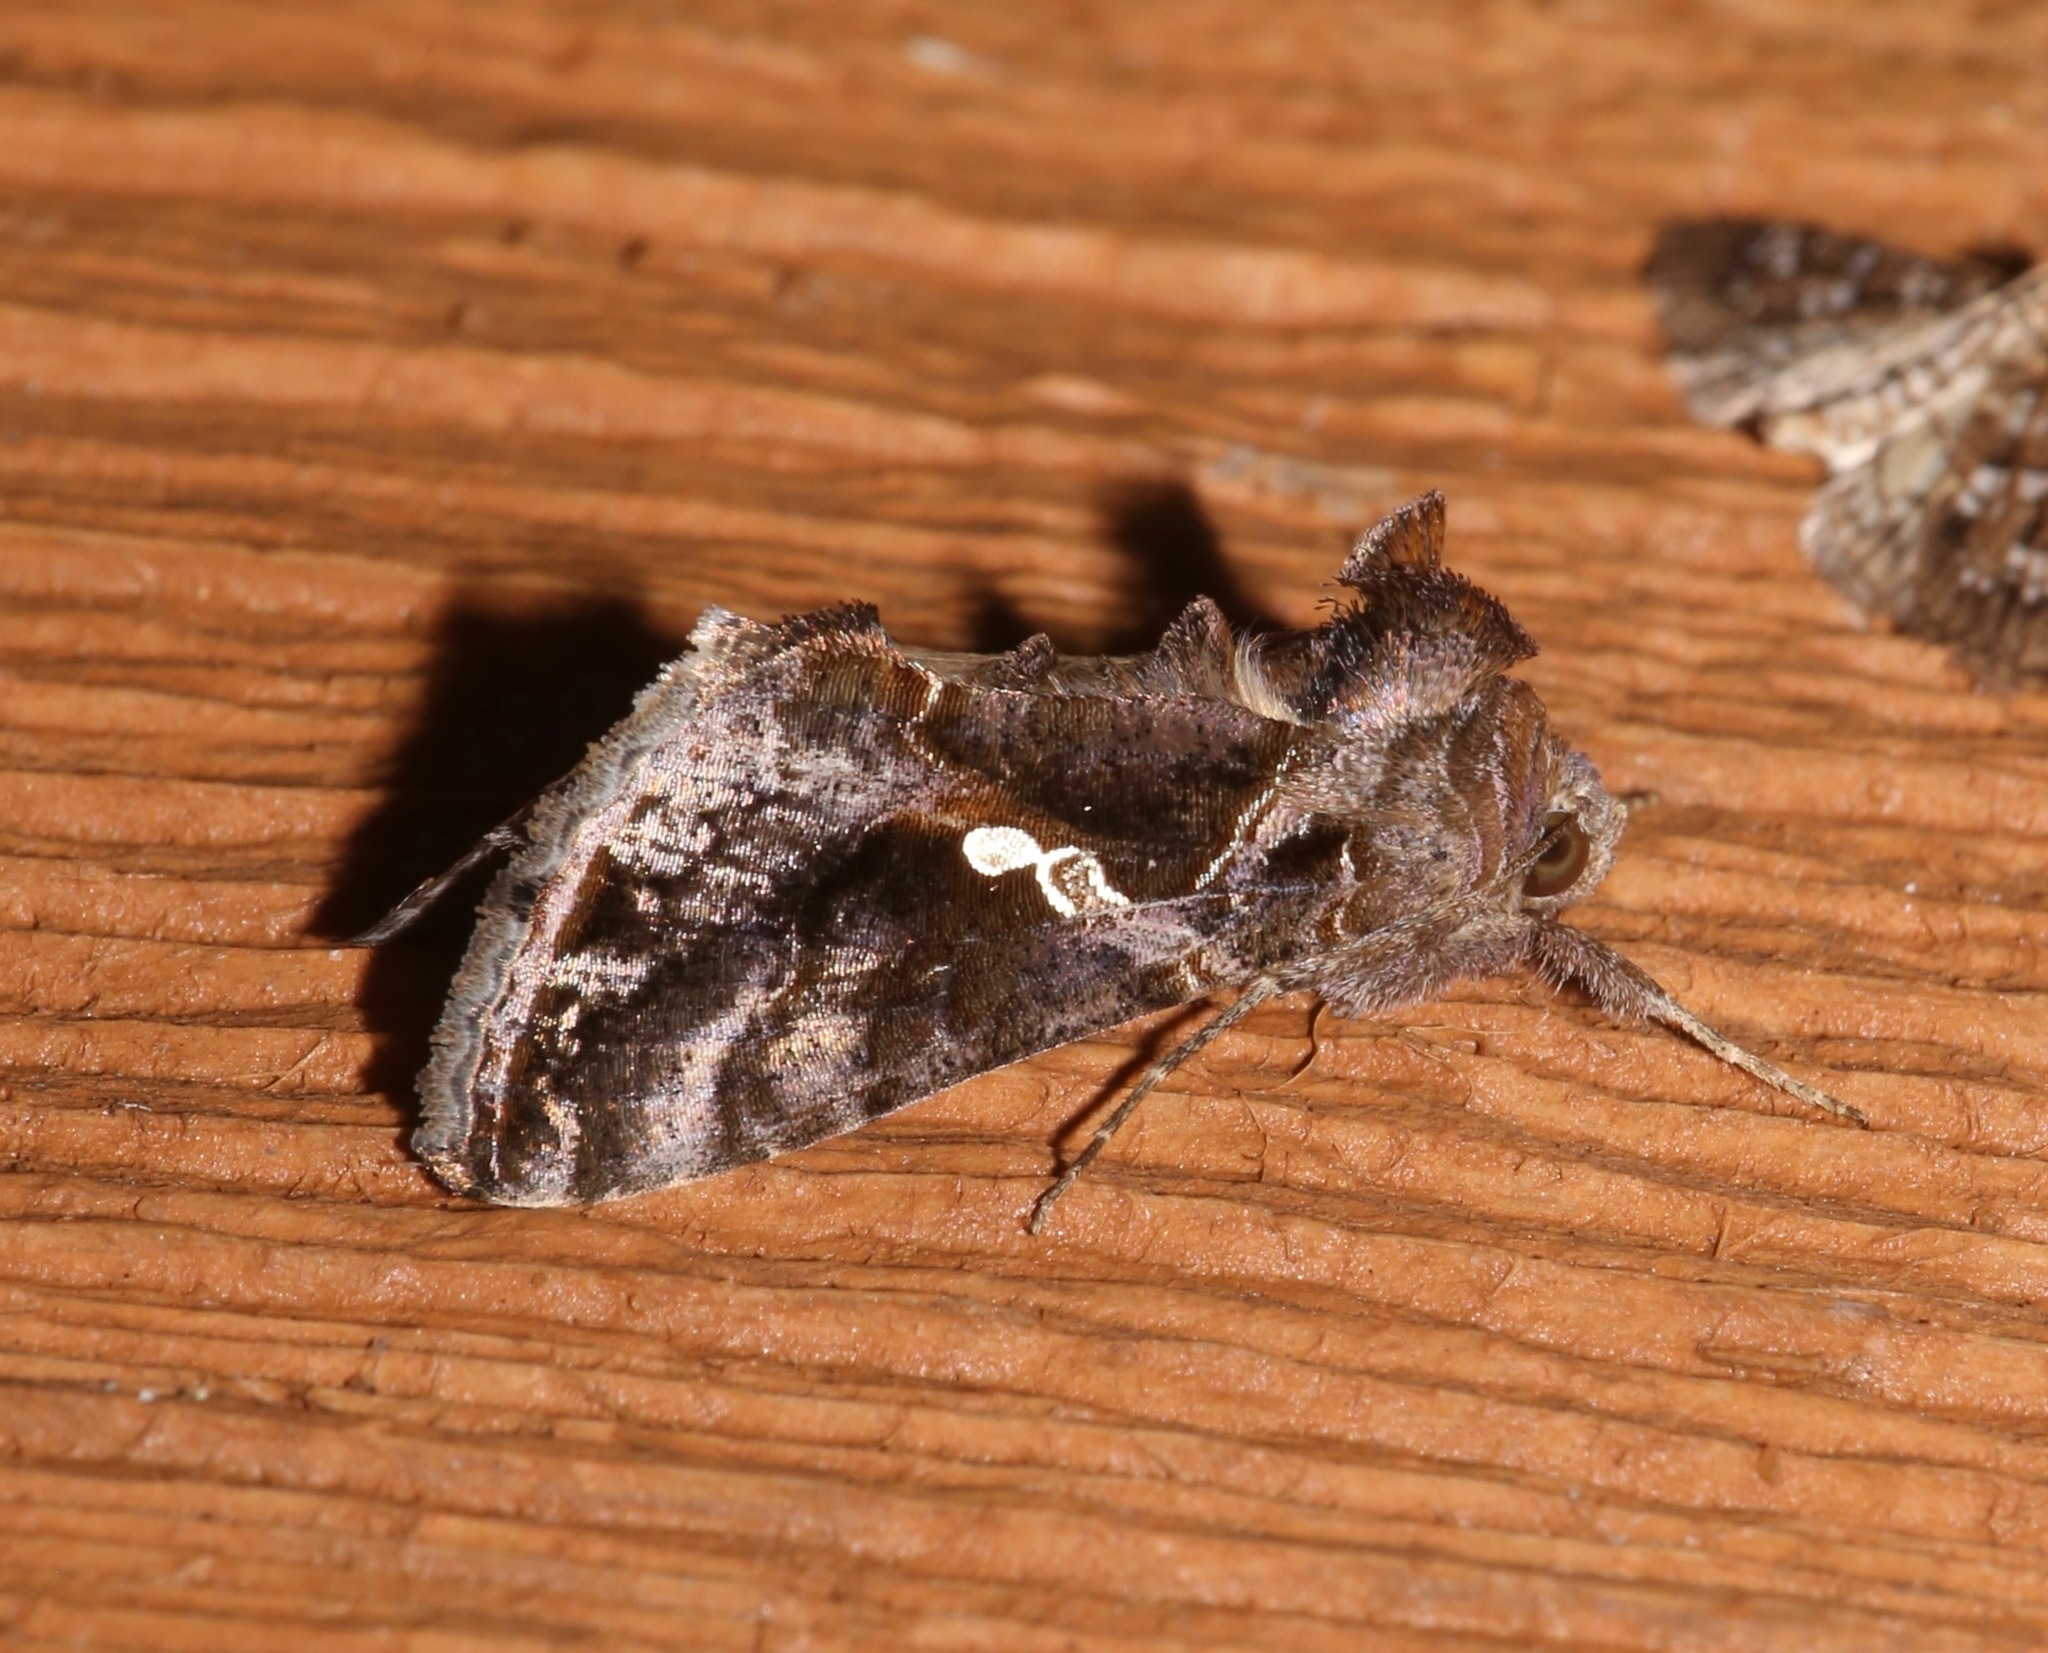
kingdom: Animalia
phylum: Arthropoda
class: Insecta
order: Lepidoptera
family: Noctuidae
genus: Chrysodeixis
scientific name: Chrysodeixis includens
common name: Cutworm moth
